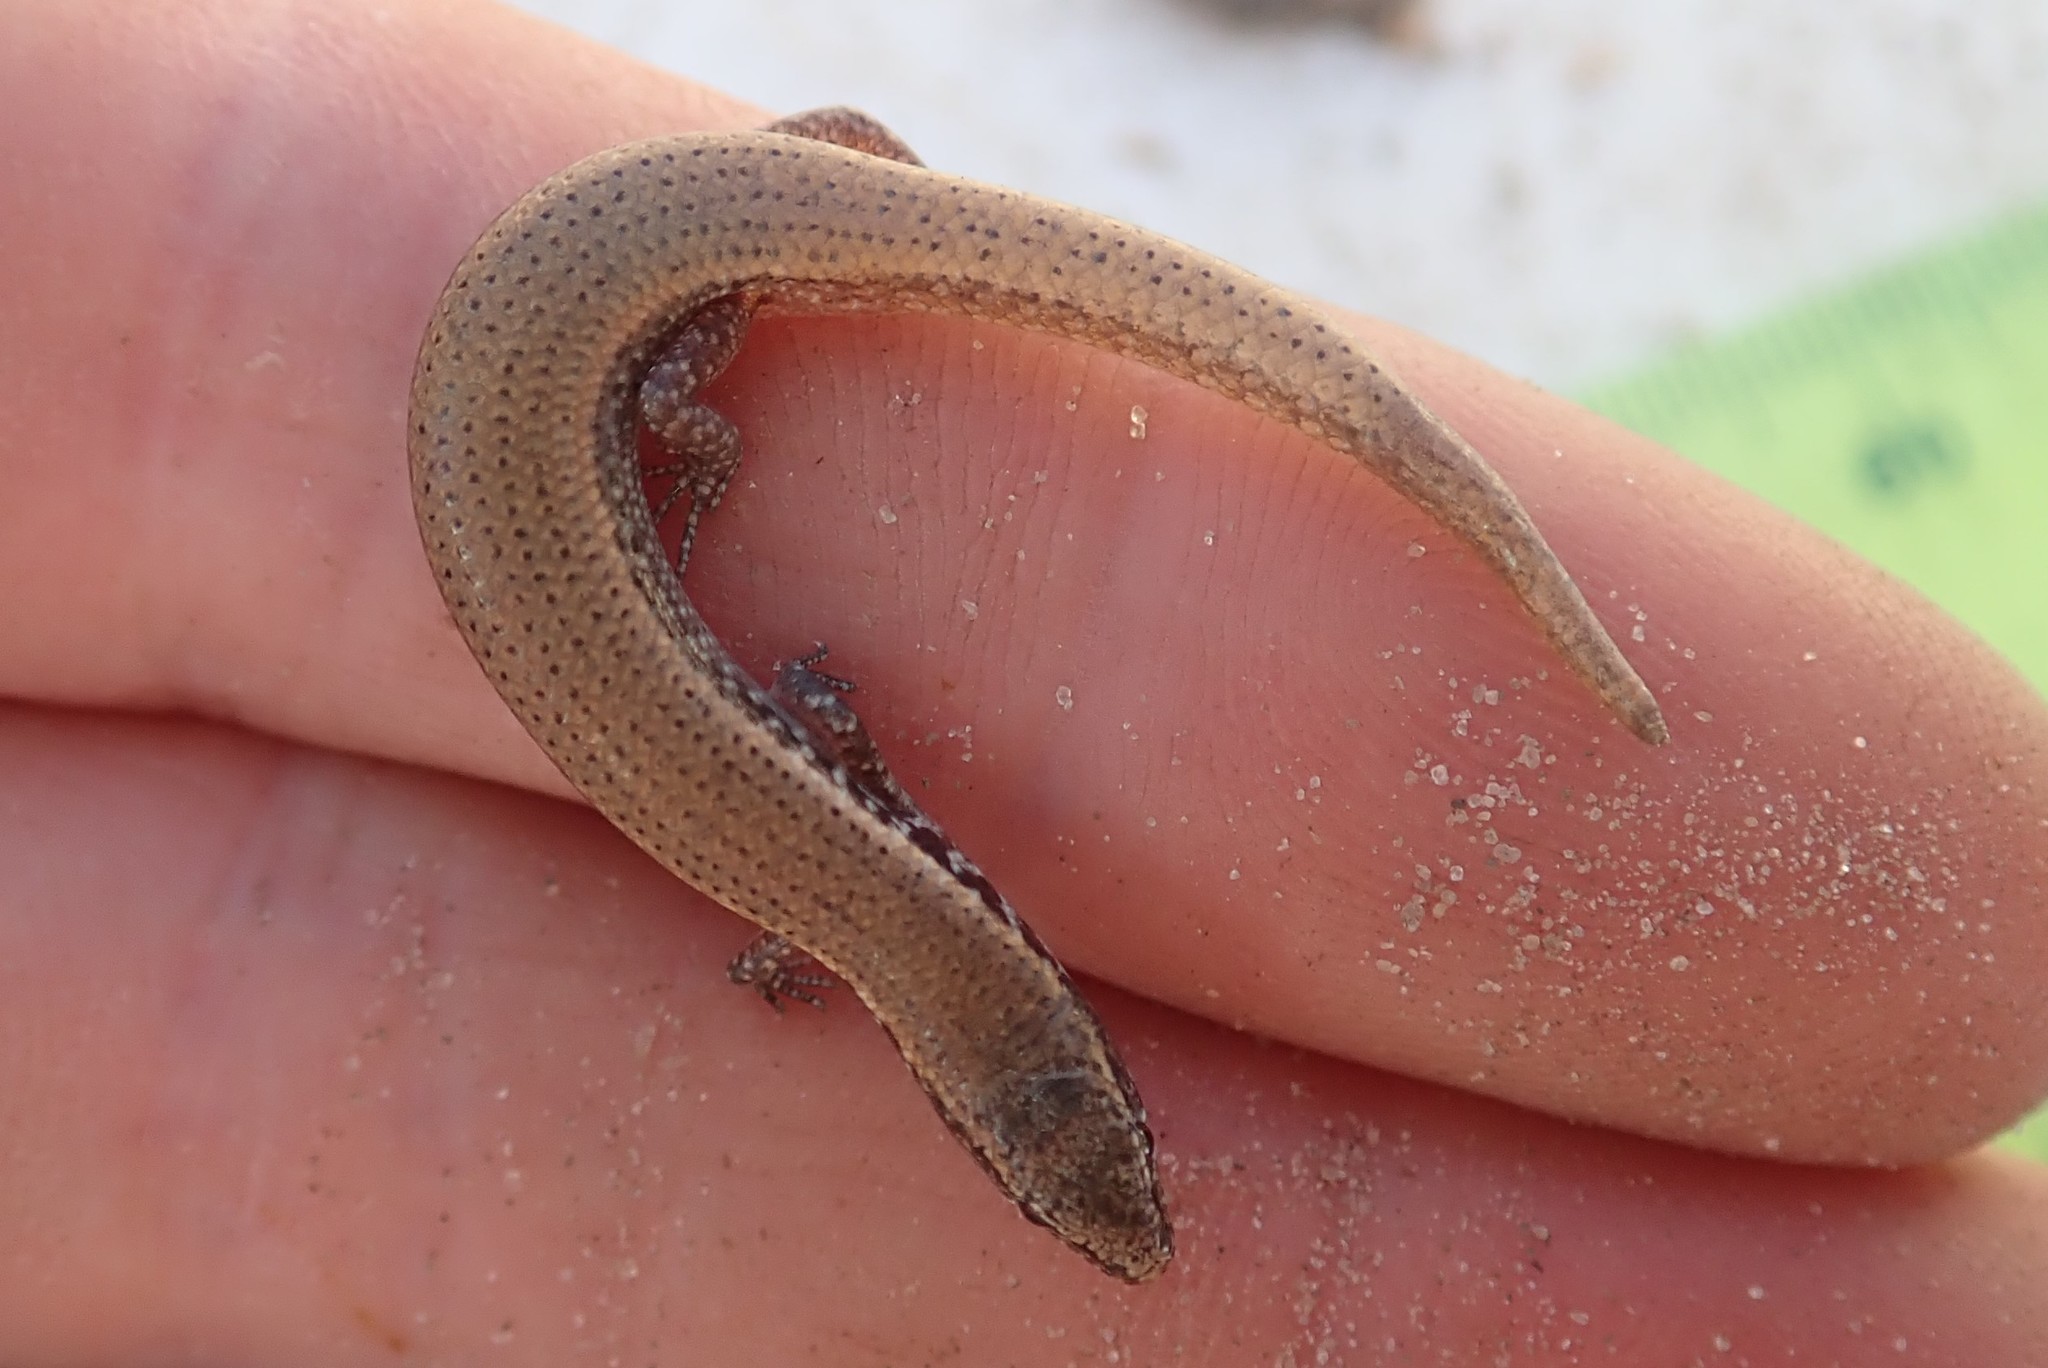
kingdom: Animalia
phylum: Chordata
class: Squamata
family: Scincidae
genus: Panaspis
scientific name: Panaspis maculicollis
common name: Spotted-neck snake-eyed skink
